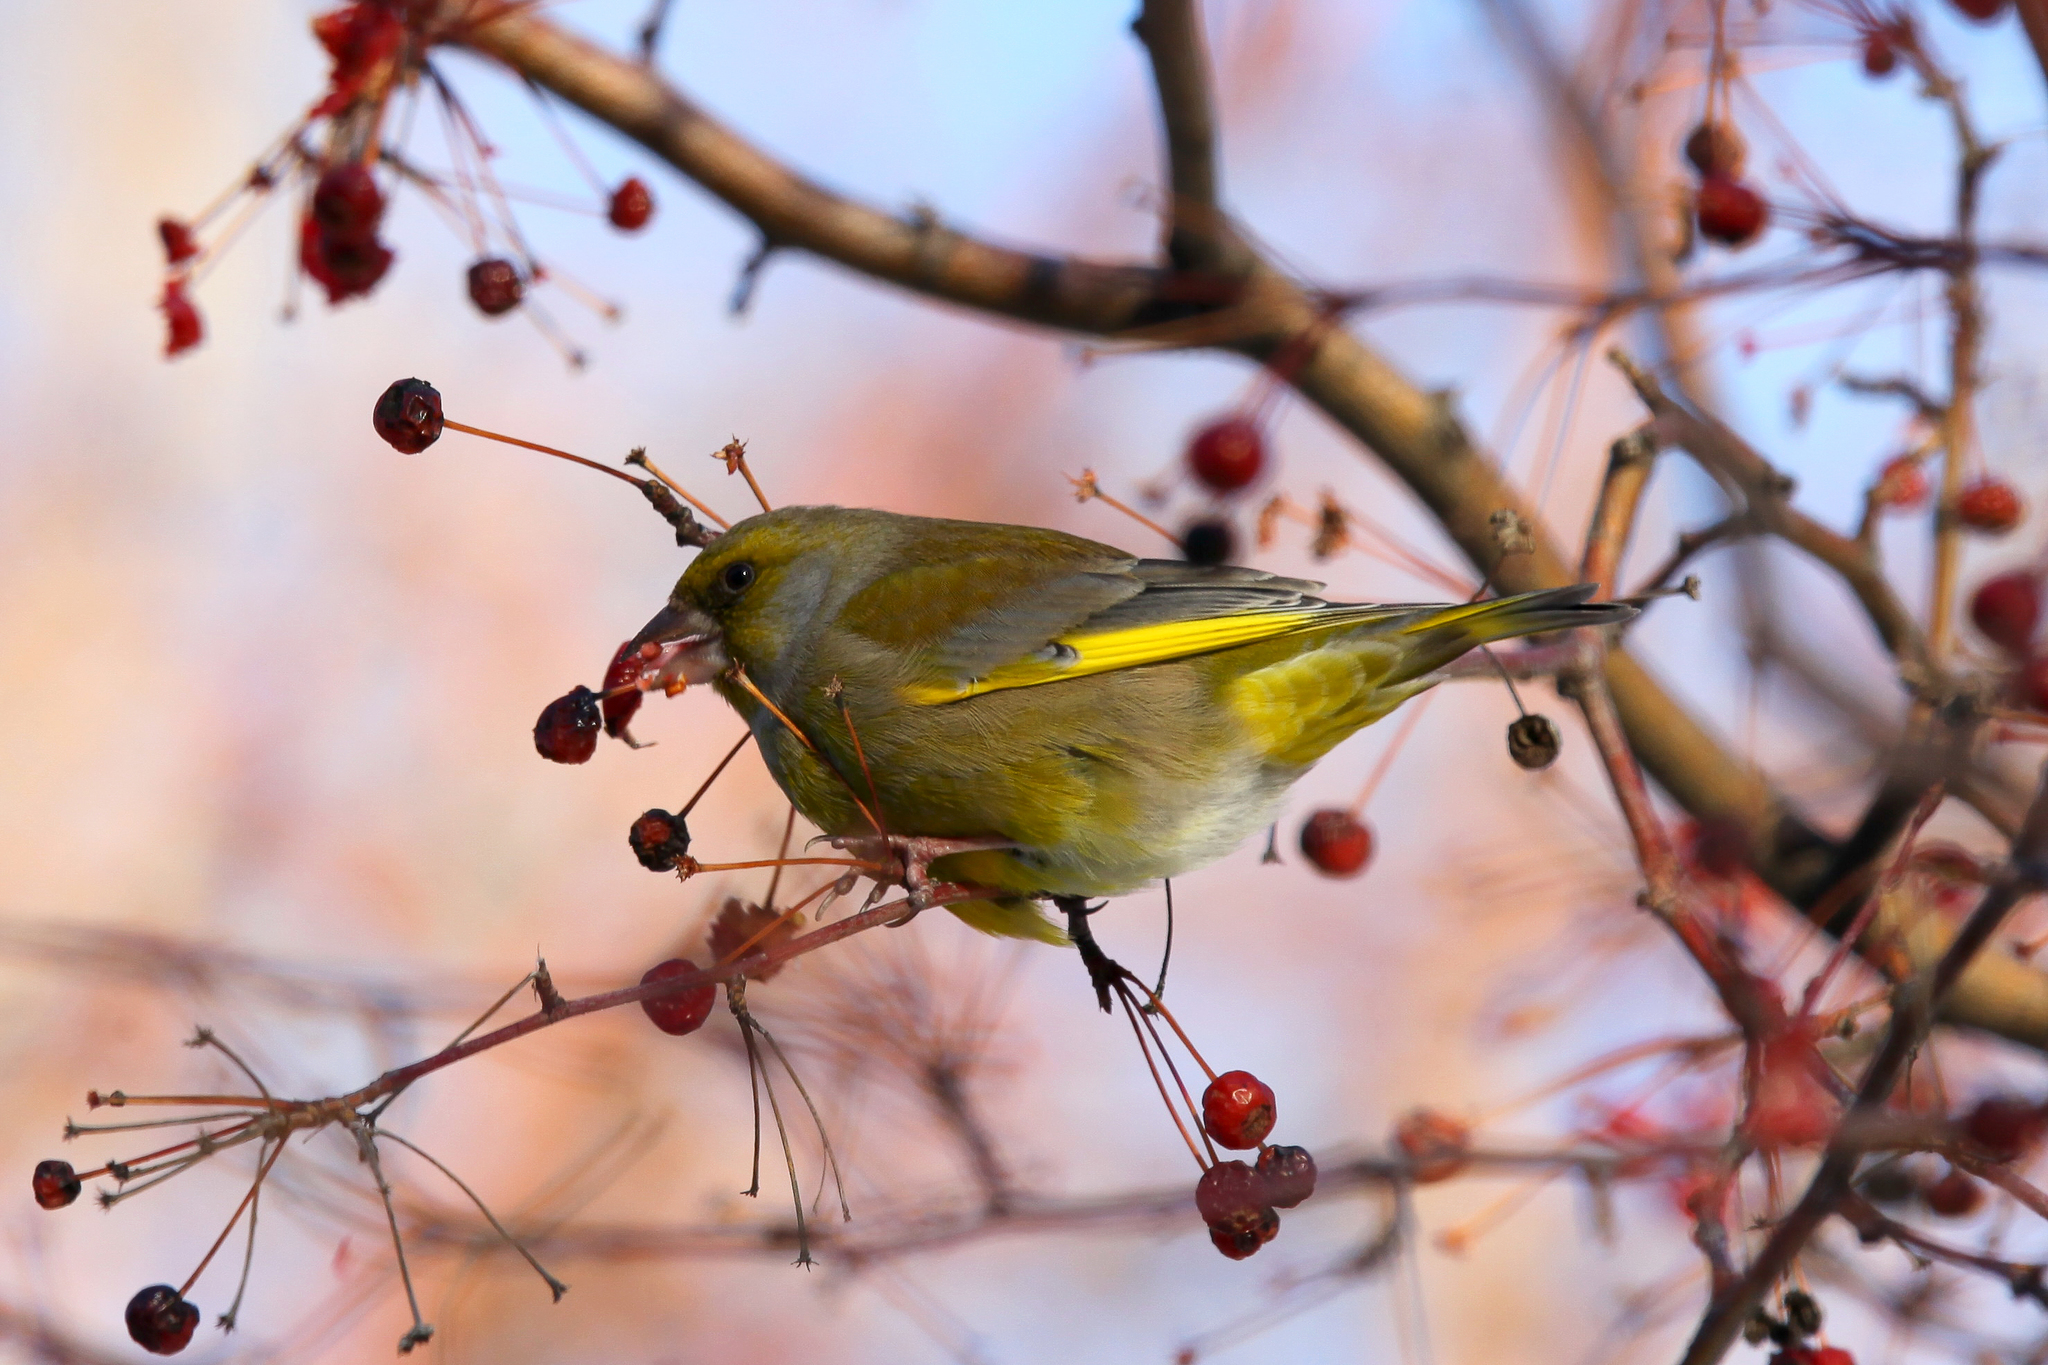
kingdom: Plantae
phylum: Tracheophyta
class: Liliopsida
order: Poales
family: Poaceae
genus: Chloris
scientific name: Chloris chloris
